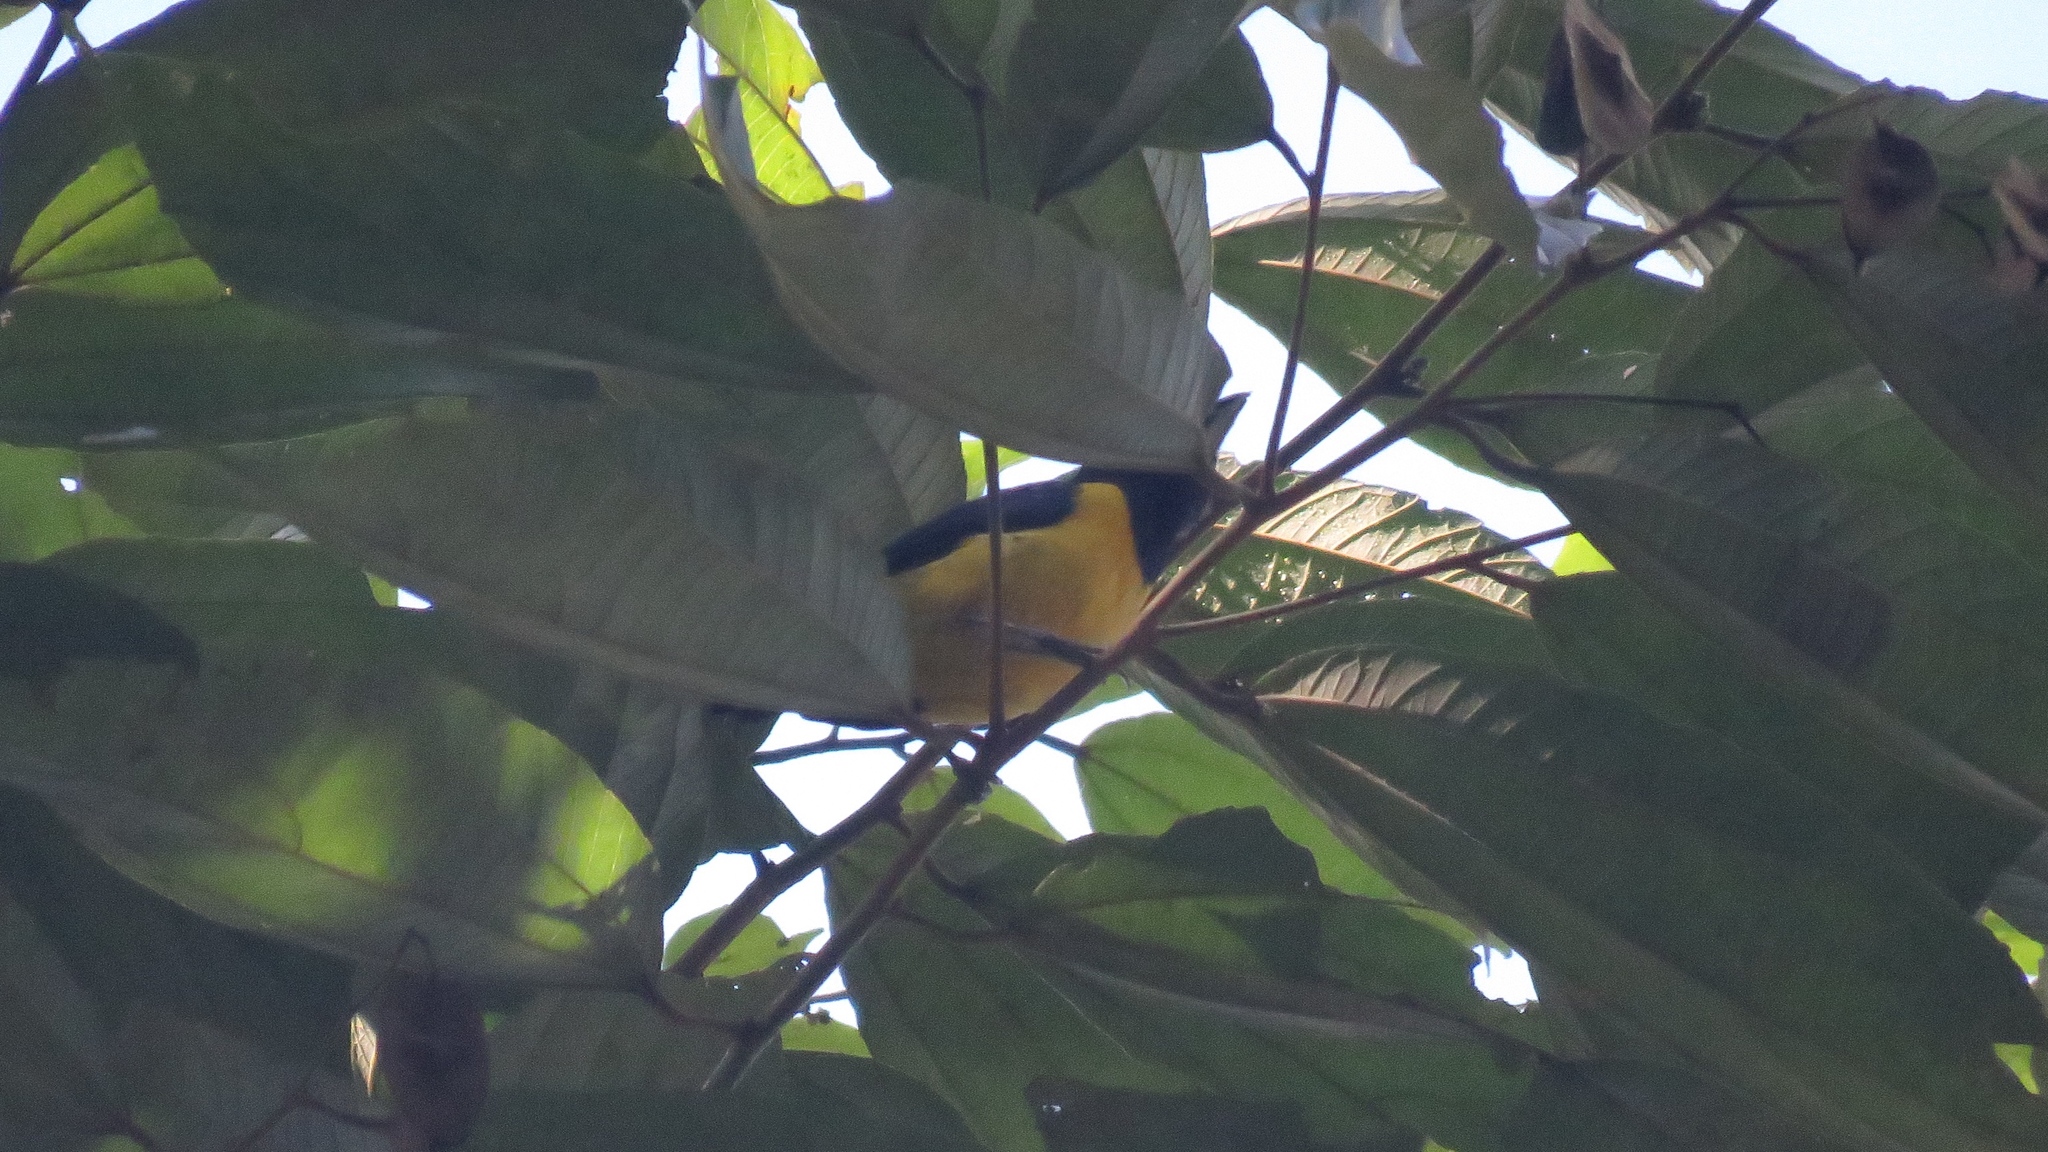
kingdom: Animalia
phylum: Chordata
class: Aves
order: Passeriformes
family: Fringillidae
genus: Euphonia
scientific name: Euphonia imitans
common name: Spot-crowned euphonia
